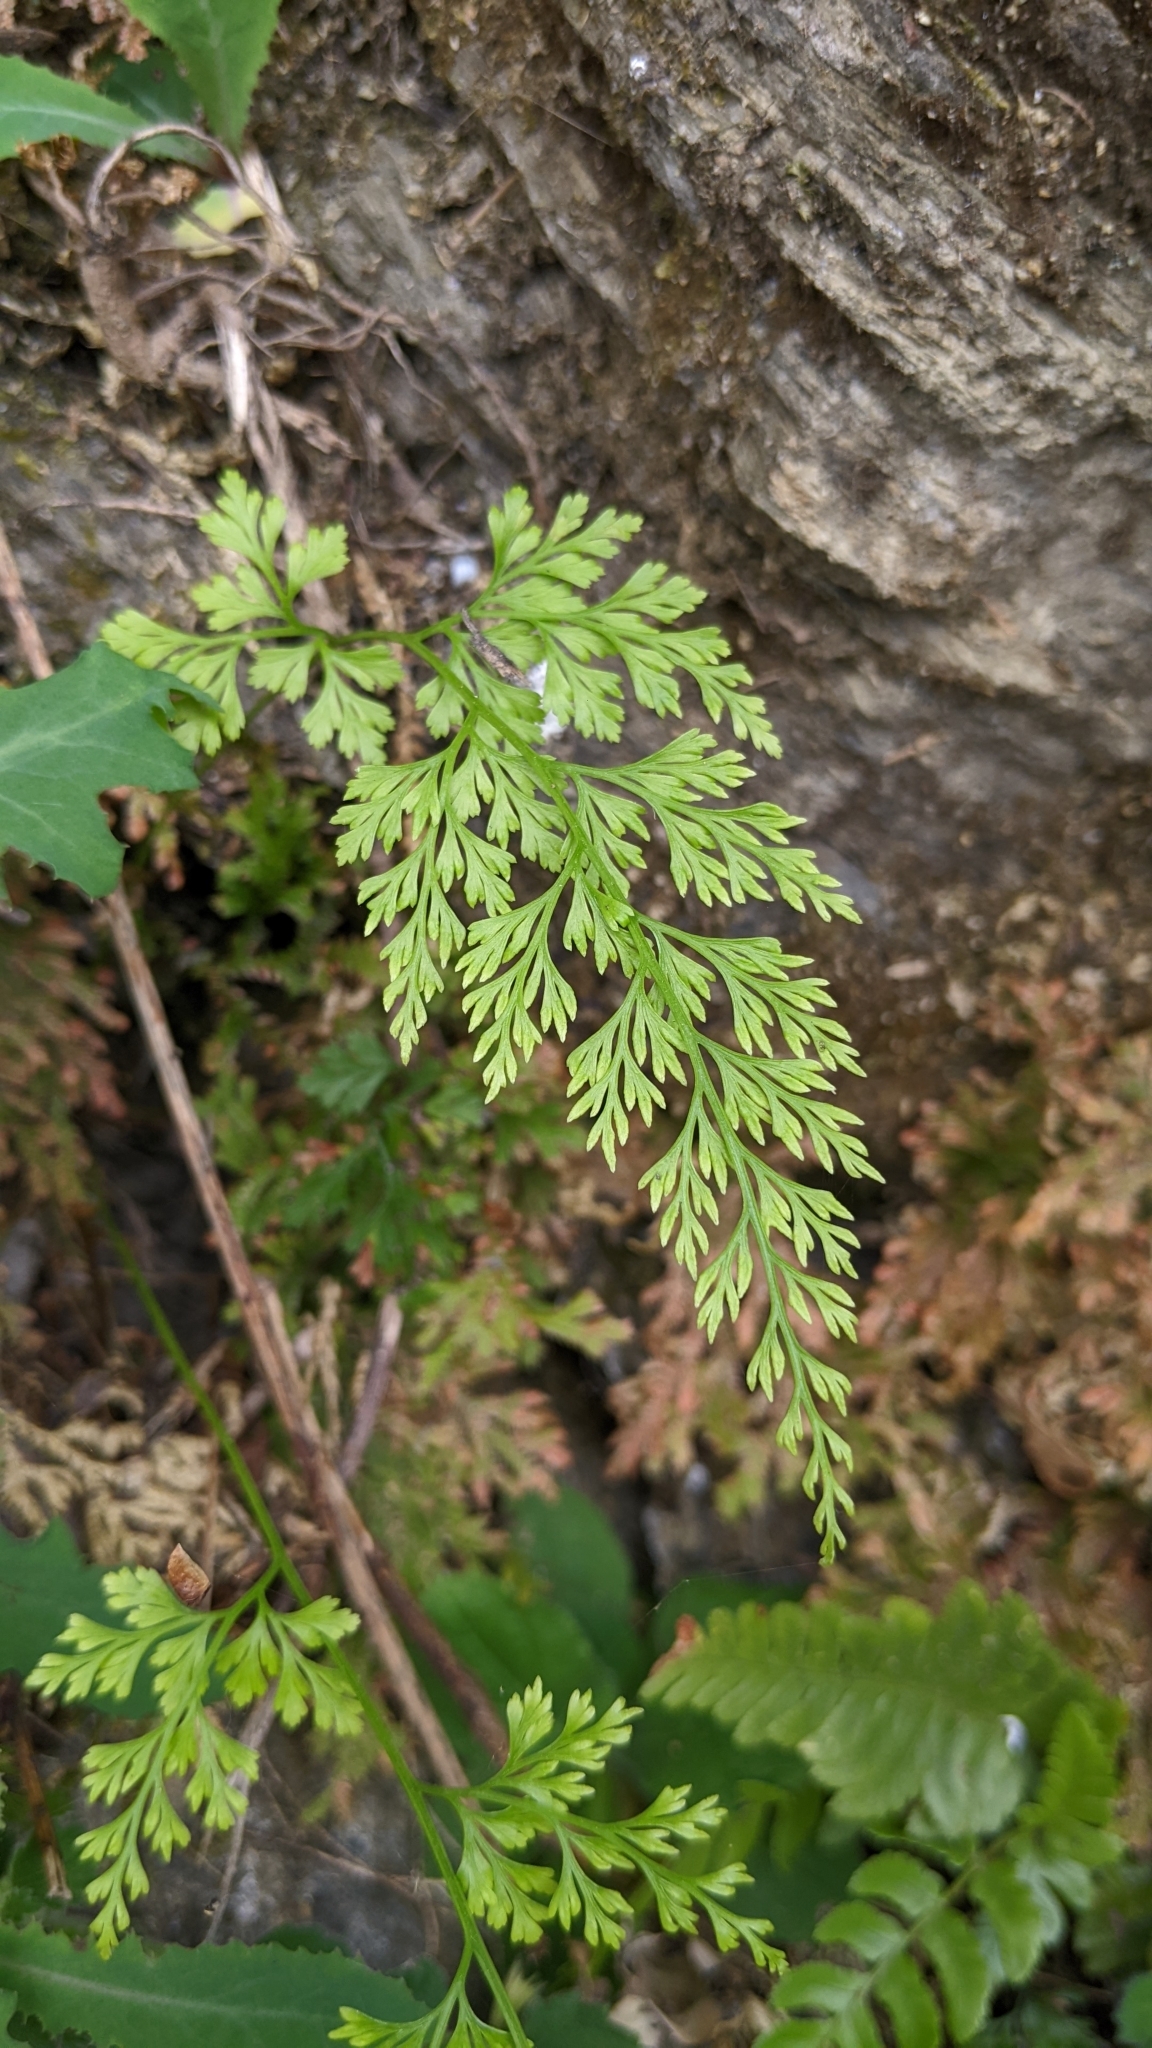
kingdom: Plantae
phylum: Tracheophyta
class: Polypodiopsida
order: Polypodiales
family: Pteridaceae
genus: Onychium
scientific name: Onychium japonicum
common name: Carrot fern
